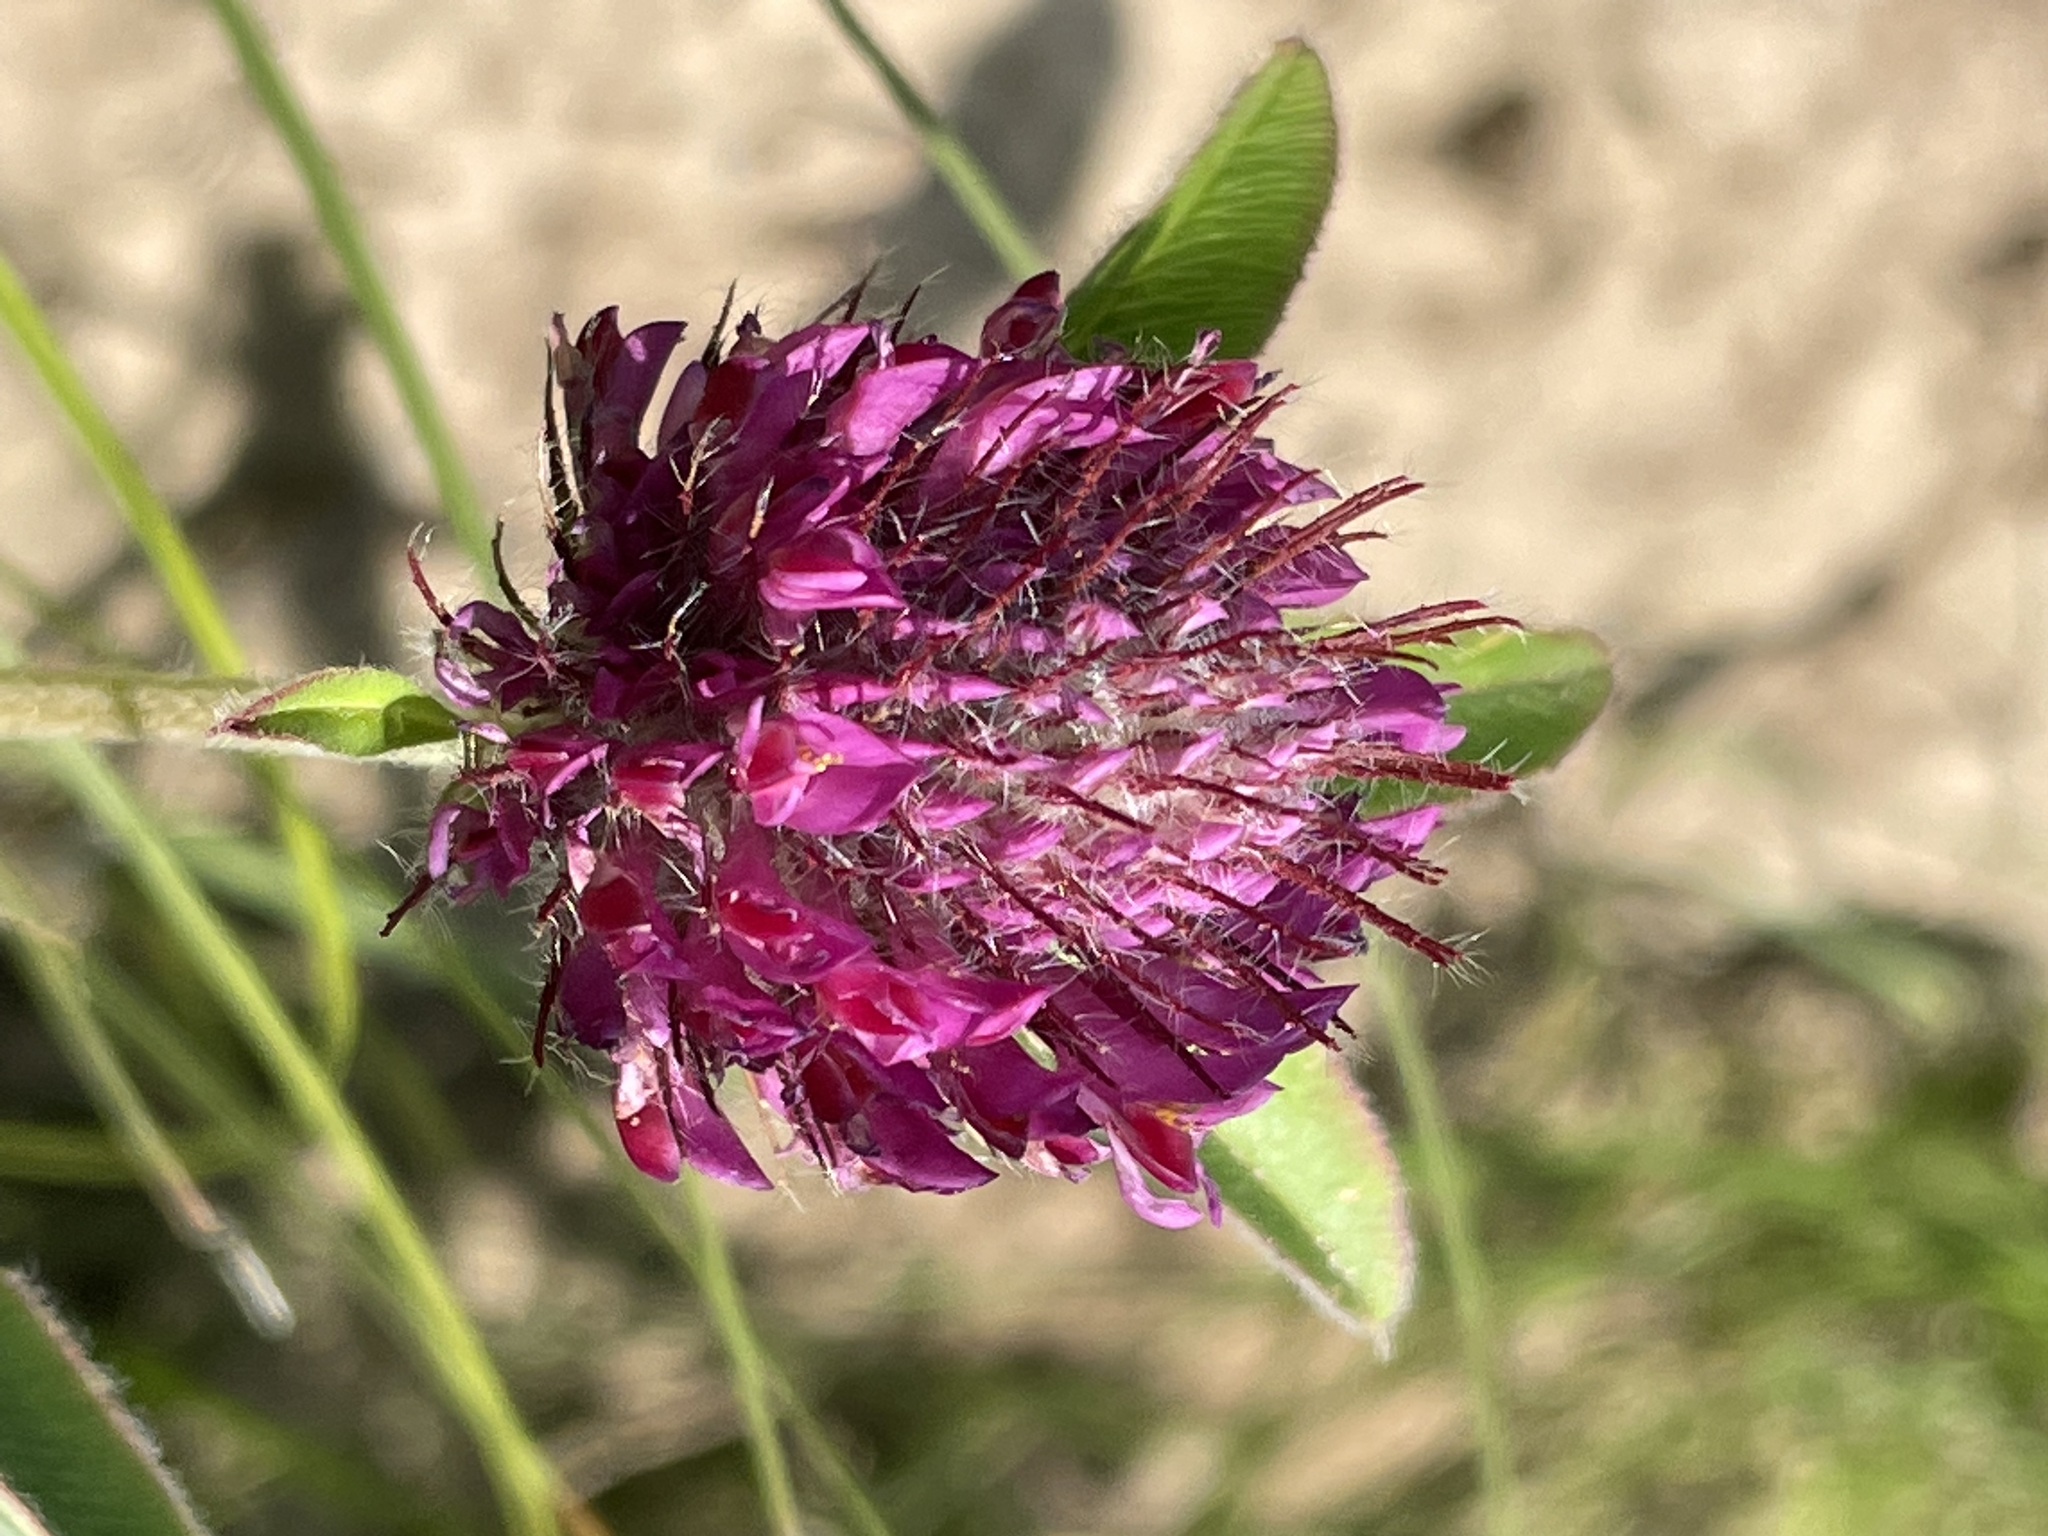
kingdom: Plantae
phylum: Tracheophyta
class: Magnoliopsida
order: Fabales
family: Fabaceae
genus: Trifolium
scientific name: Trifolium alpestre
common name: Owl-head clover
